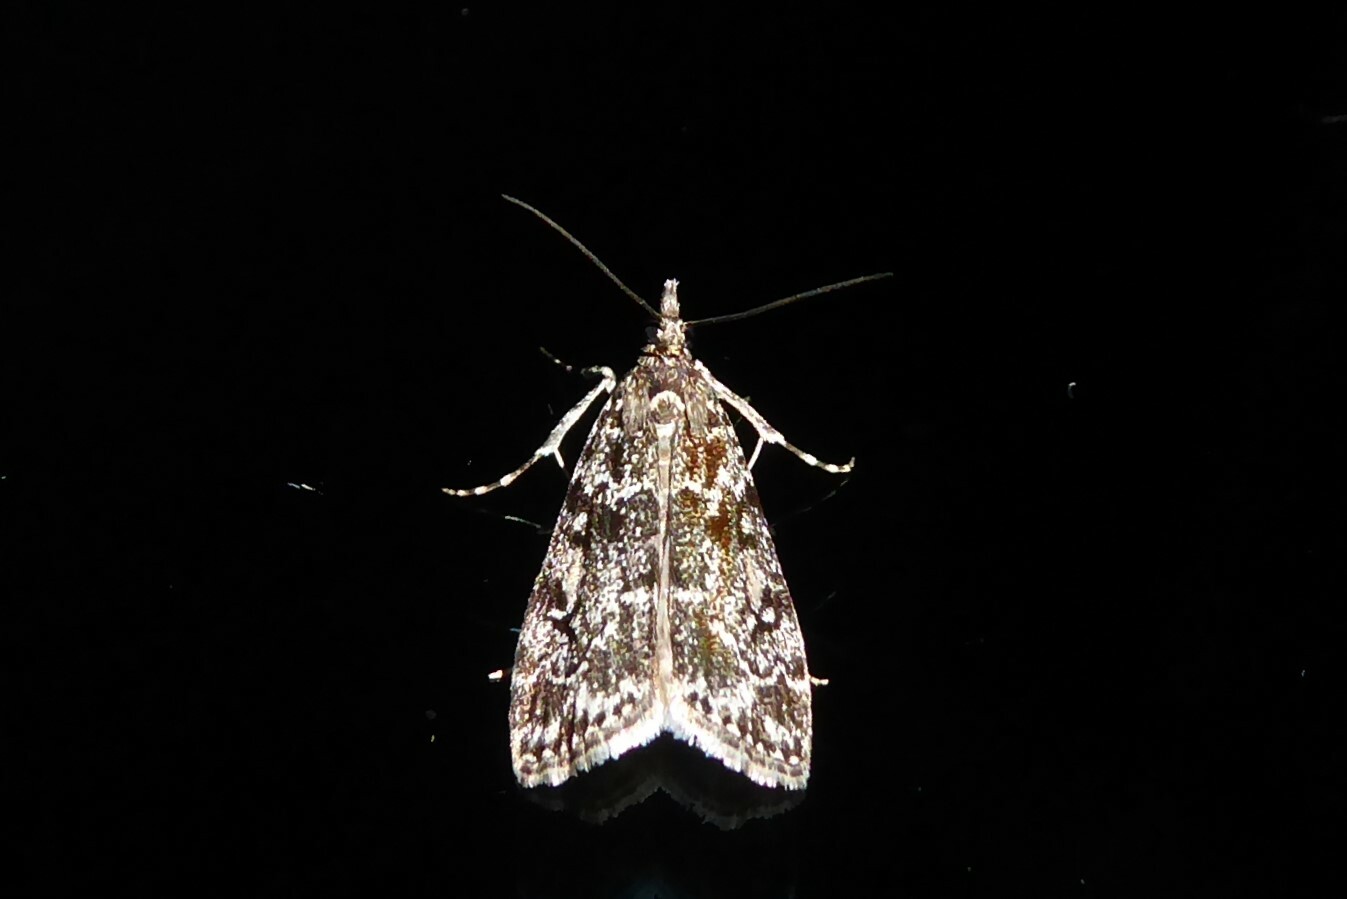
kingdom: Animalia
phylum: Arthropoda
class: Insecta
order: Lepidoptera
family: Crambidae
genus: Eudonia
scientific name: Eudonia philerga
